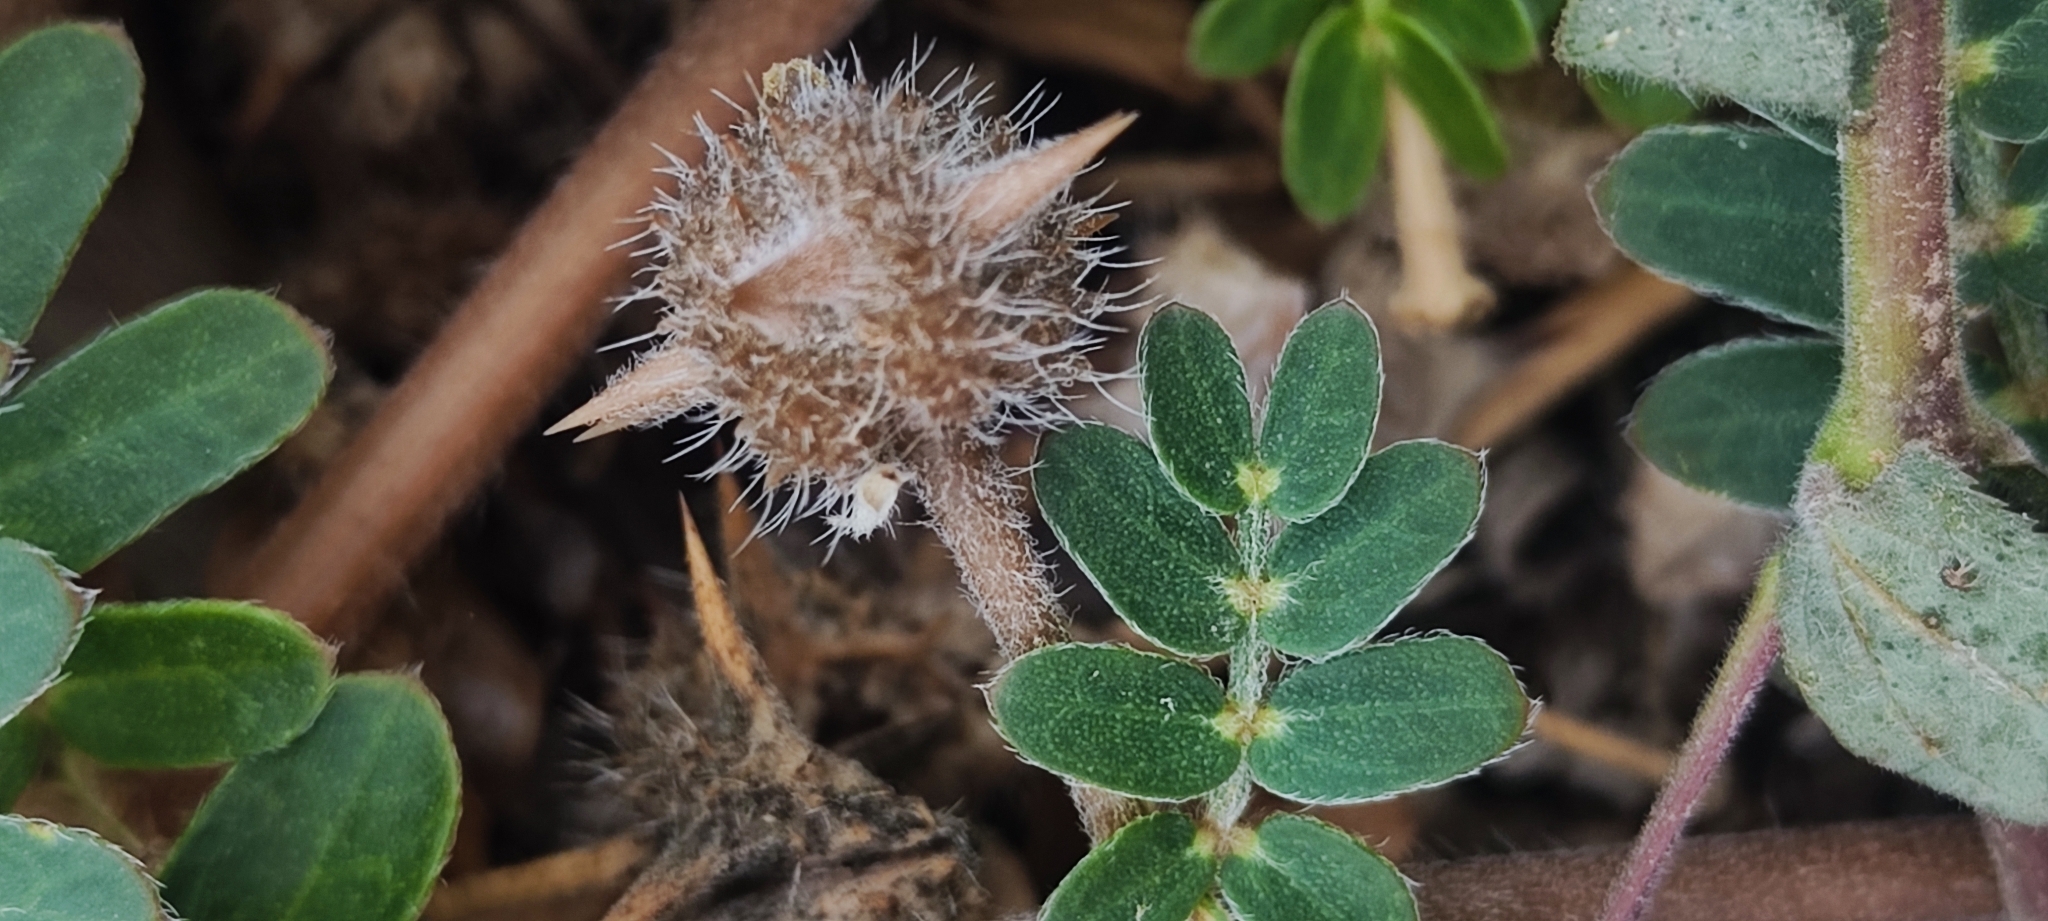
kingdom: Plantae
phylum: Tracheophyta
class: Magnoliopsida
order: Zygophyllales
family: Zygophyllaceae
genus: Tribulus
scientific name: Tribulus terrestris
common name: Puncturevine
